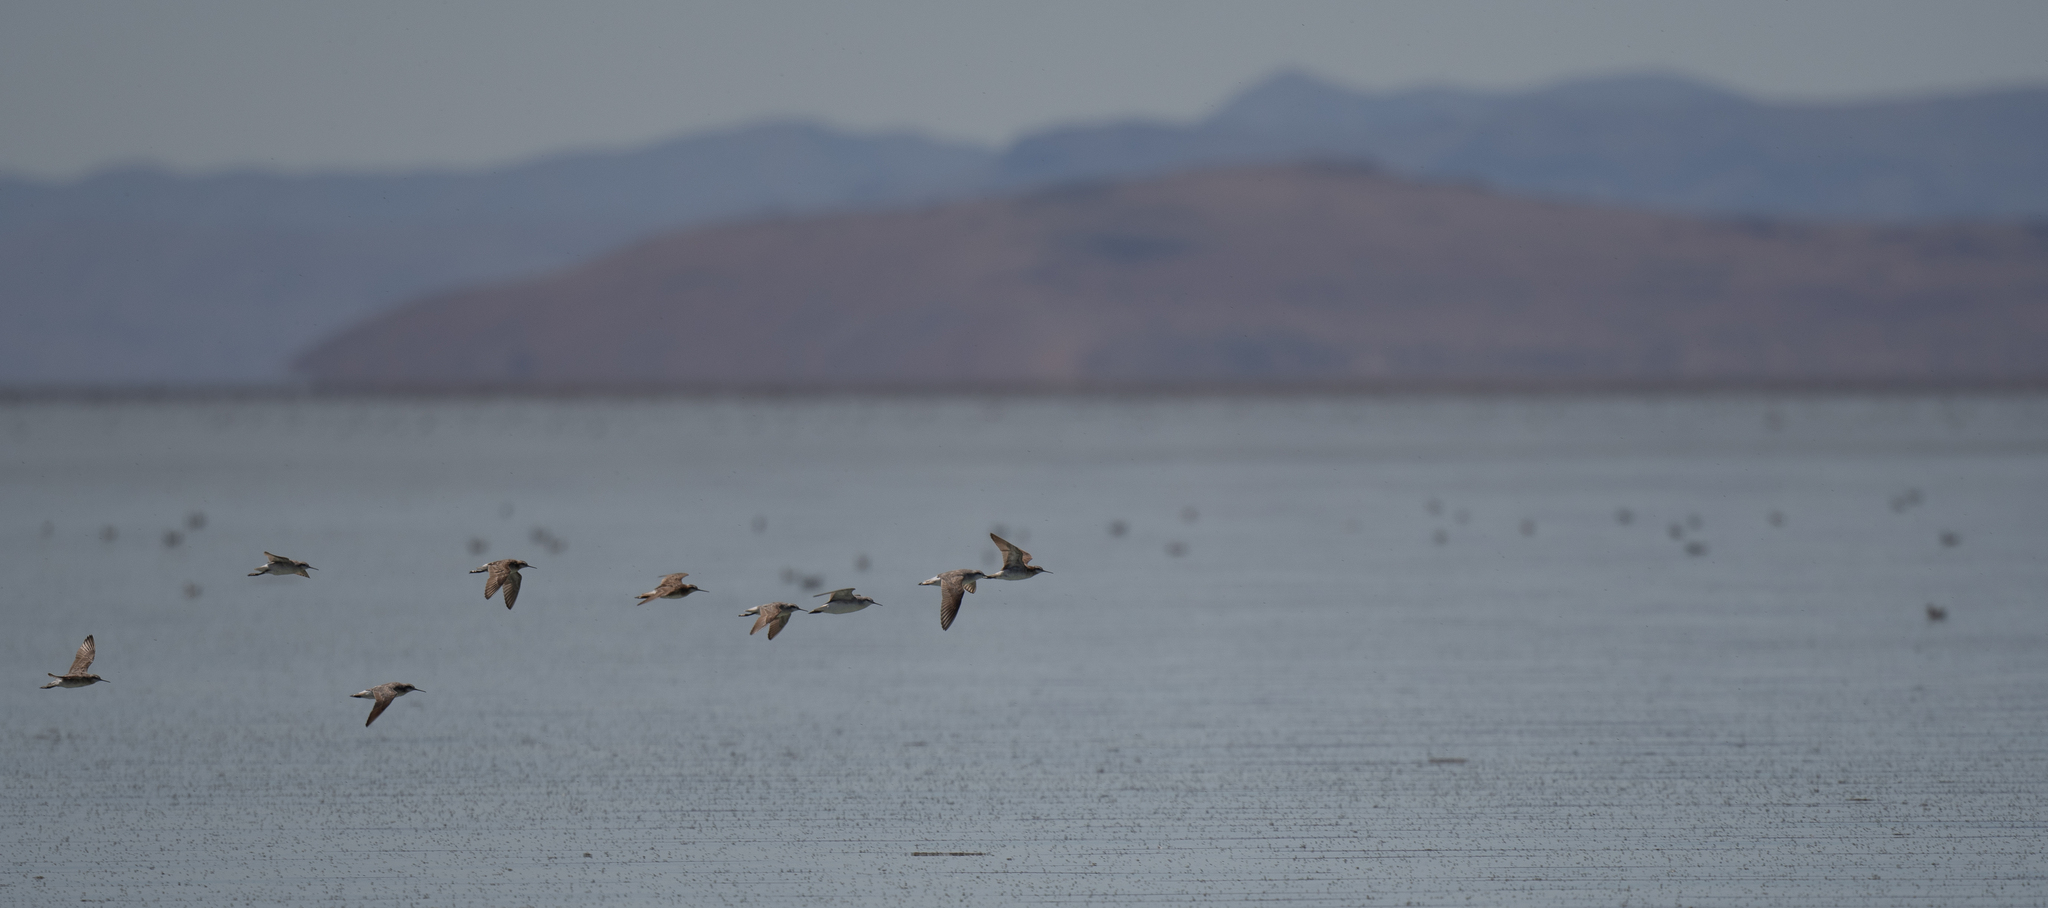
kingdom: Animalia
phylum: Chordata
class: Aves
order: Charadriiformes
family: Scolopacidae
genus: Phalaropus
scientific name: Phalaropus tricolor
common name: Wilson's phalarope
